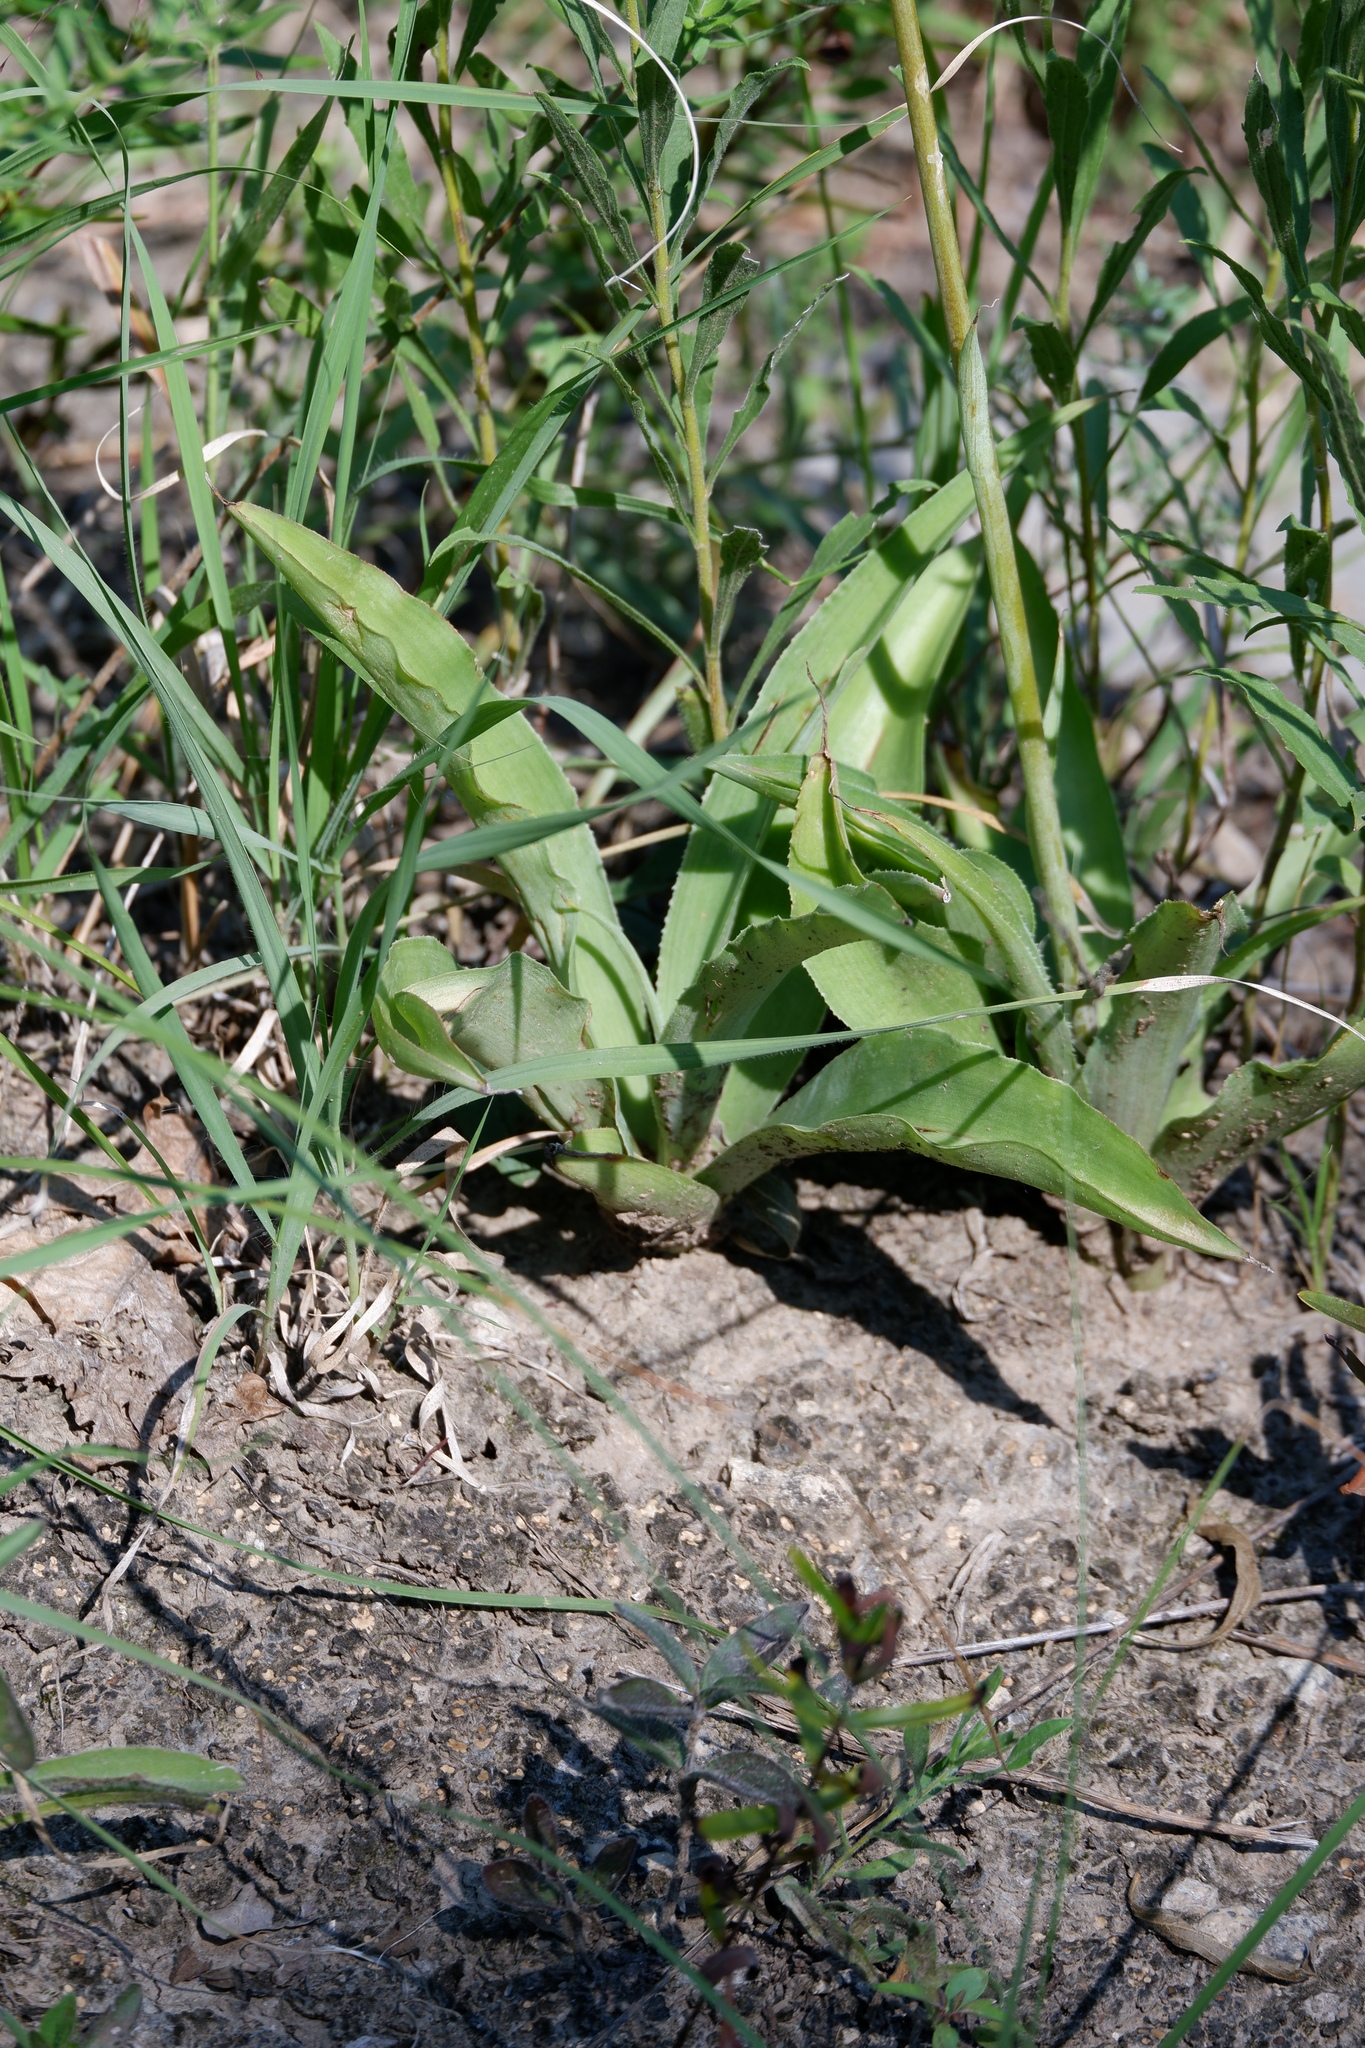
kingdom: Plantae
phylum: Tracheophyta
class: Liliopsida
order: Asparagales
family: Asparagaceae
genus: Agave
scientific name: Agave virginica
